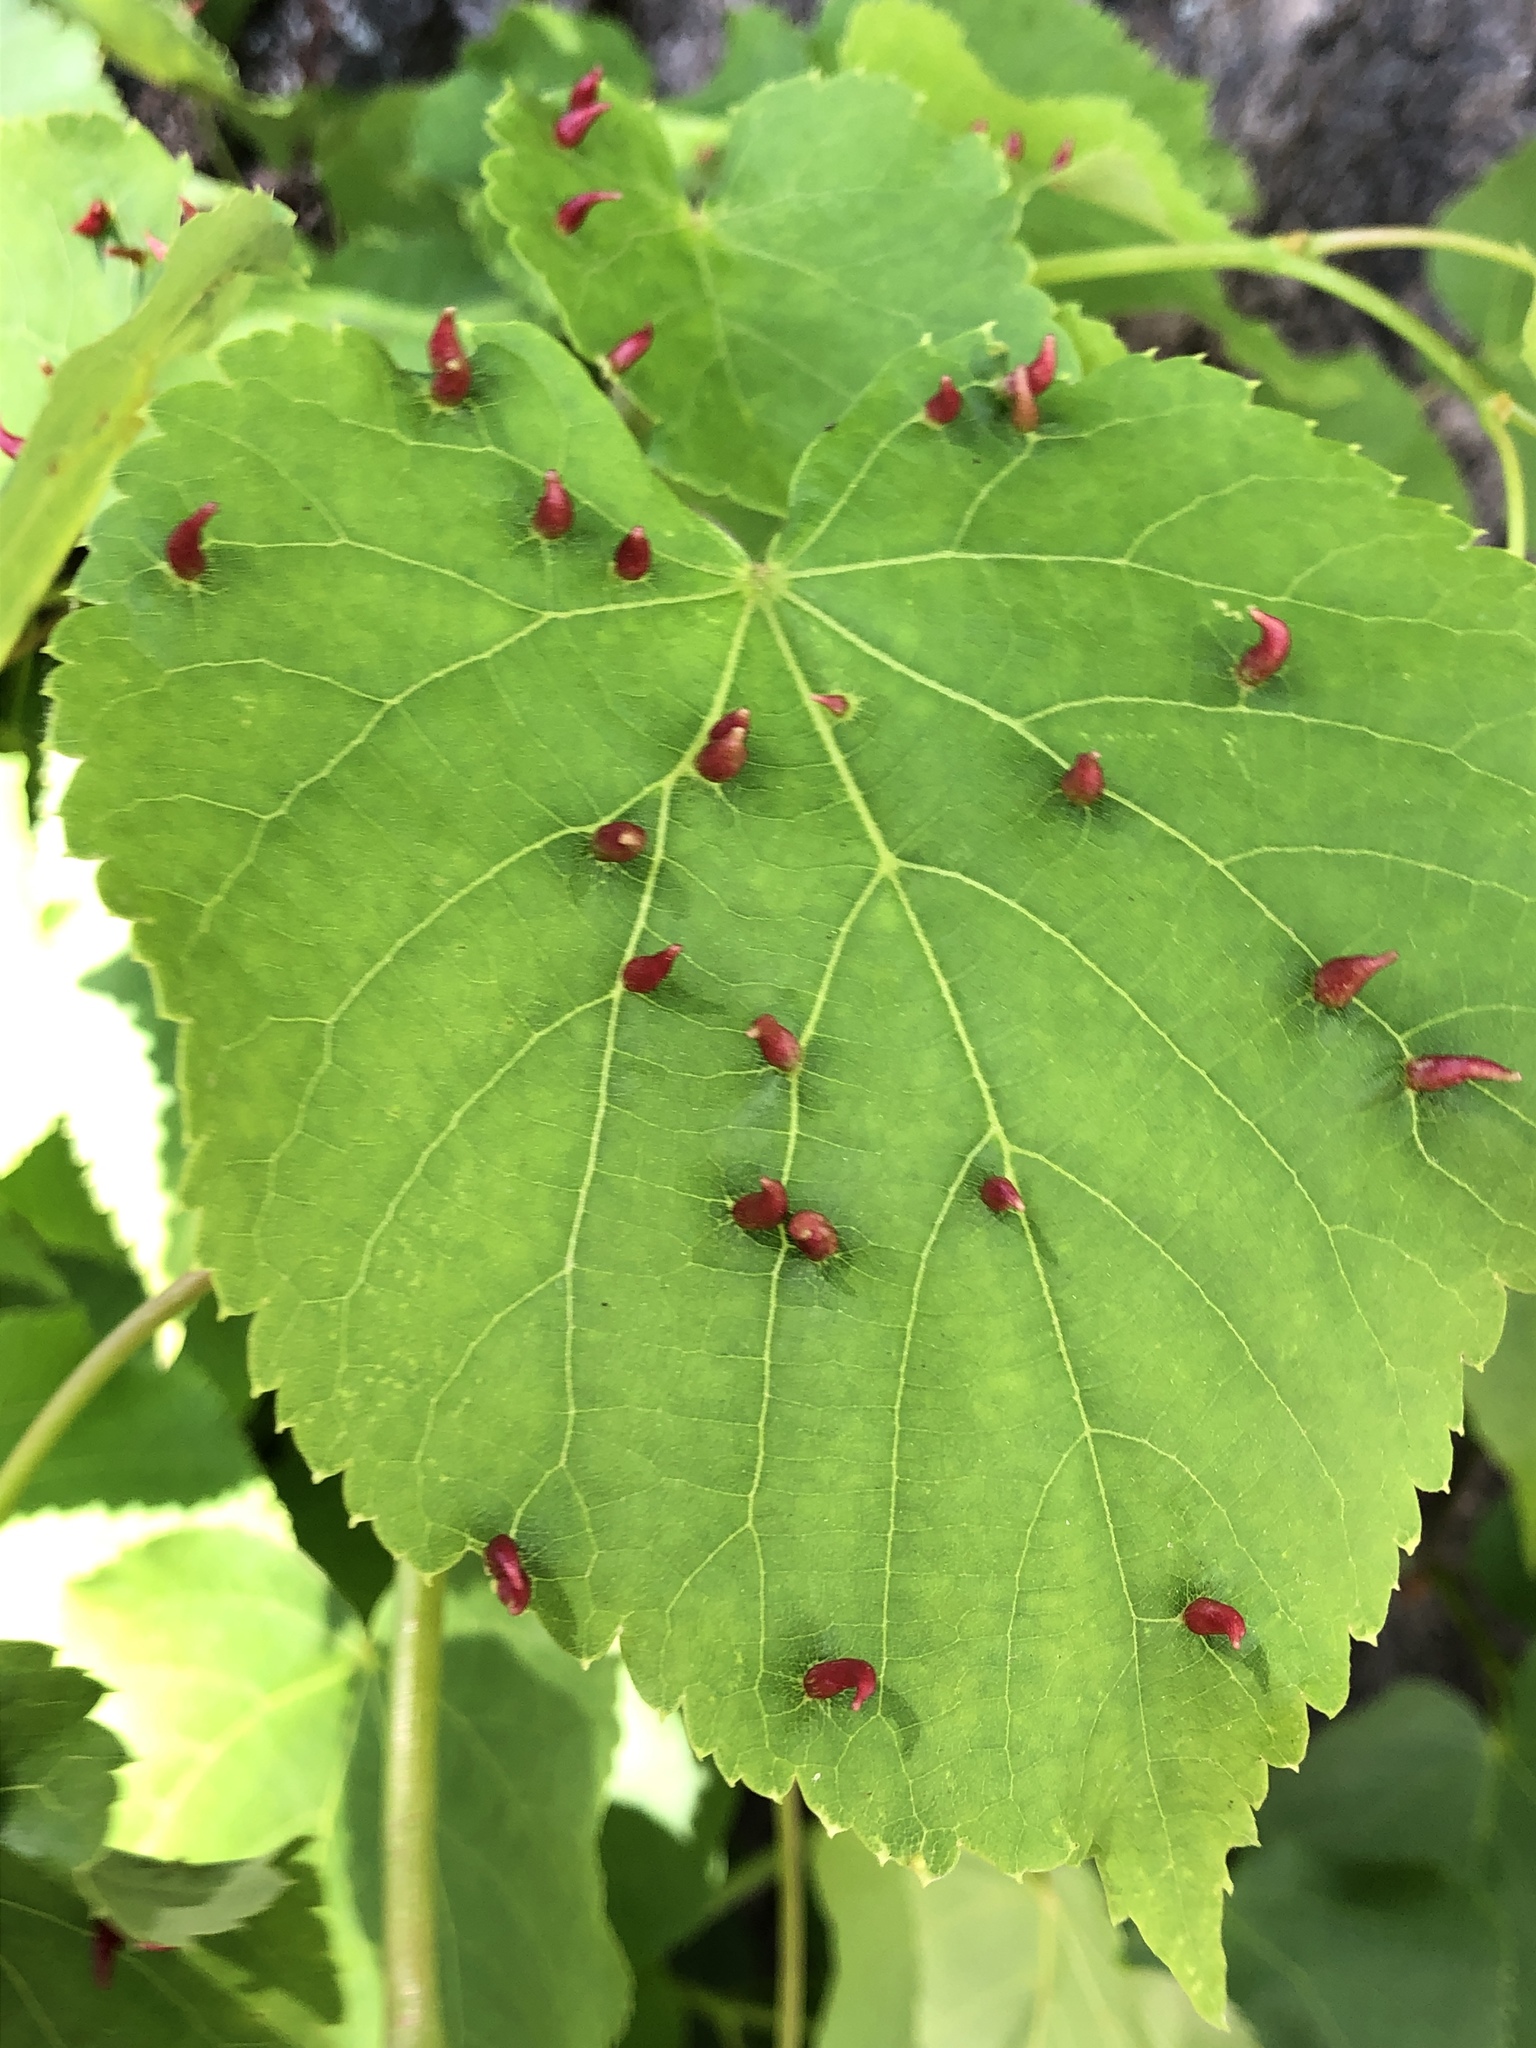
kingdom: Animalia
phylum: Arthropoda
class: Arachnida
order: Trombidiformes
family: Eriophyidae
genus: Eriophyes
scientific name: Eriophyes tiliae
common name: Red nail gall mite
